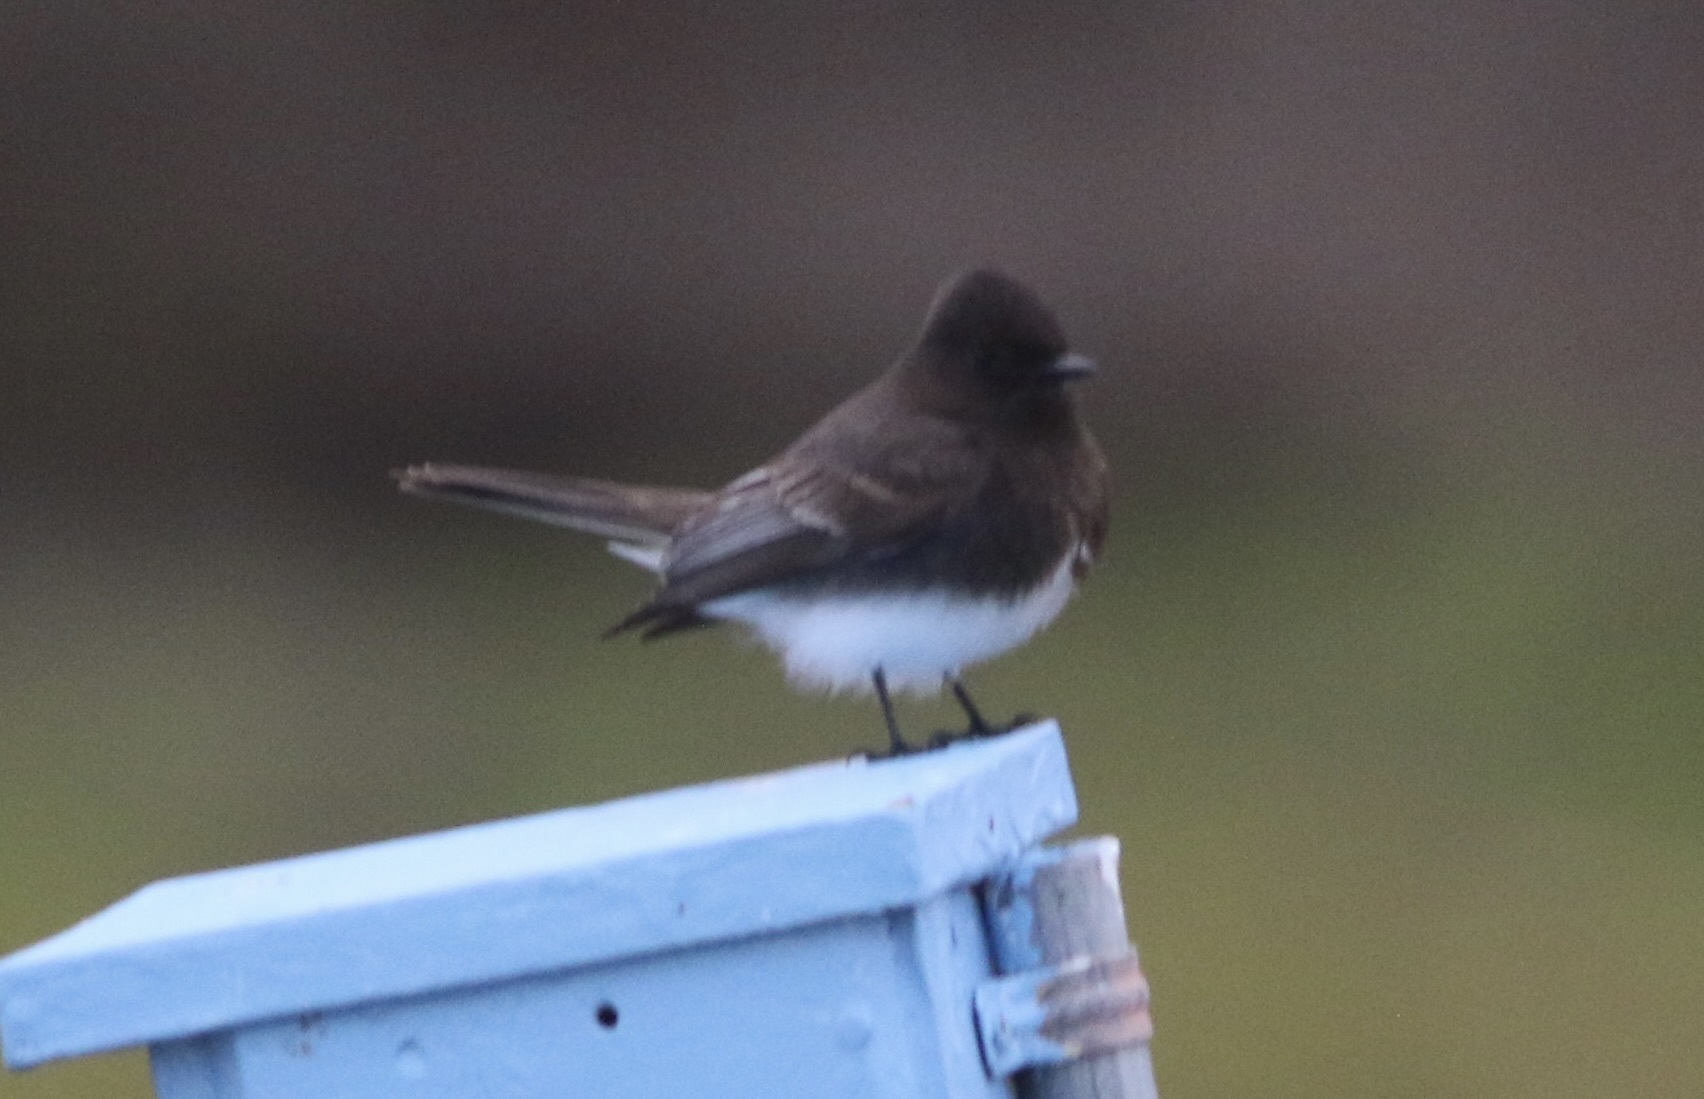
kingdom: Animalia
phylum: Chordata
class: Aves
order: Passeriformes
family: Tyrannidae
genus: Sayornis
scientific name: Sayornis nigricans
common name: Black phoebe
